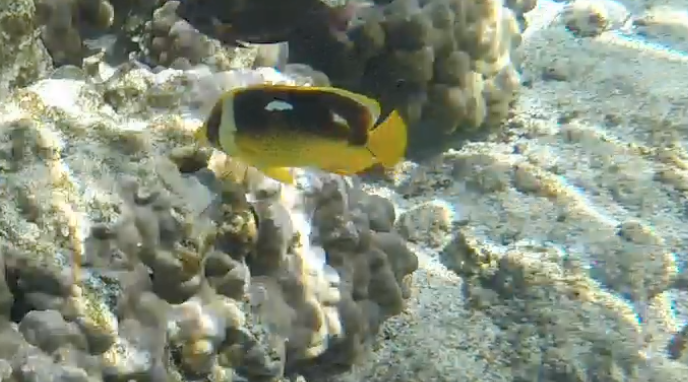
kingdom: Animalia
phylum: Chordata
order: Perciformes
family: Chaetodontidae
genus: Chaetodon
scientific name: Chaetodon quadrimaculatus
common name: Fourspot butterflyfish
